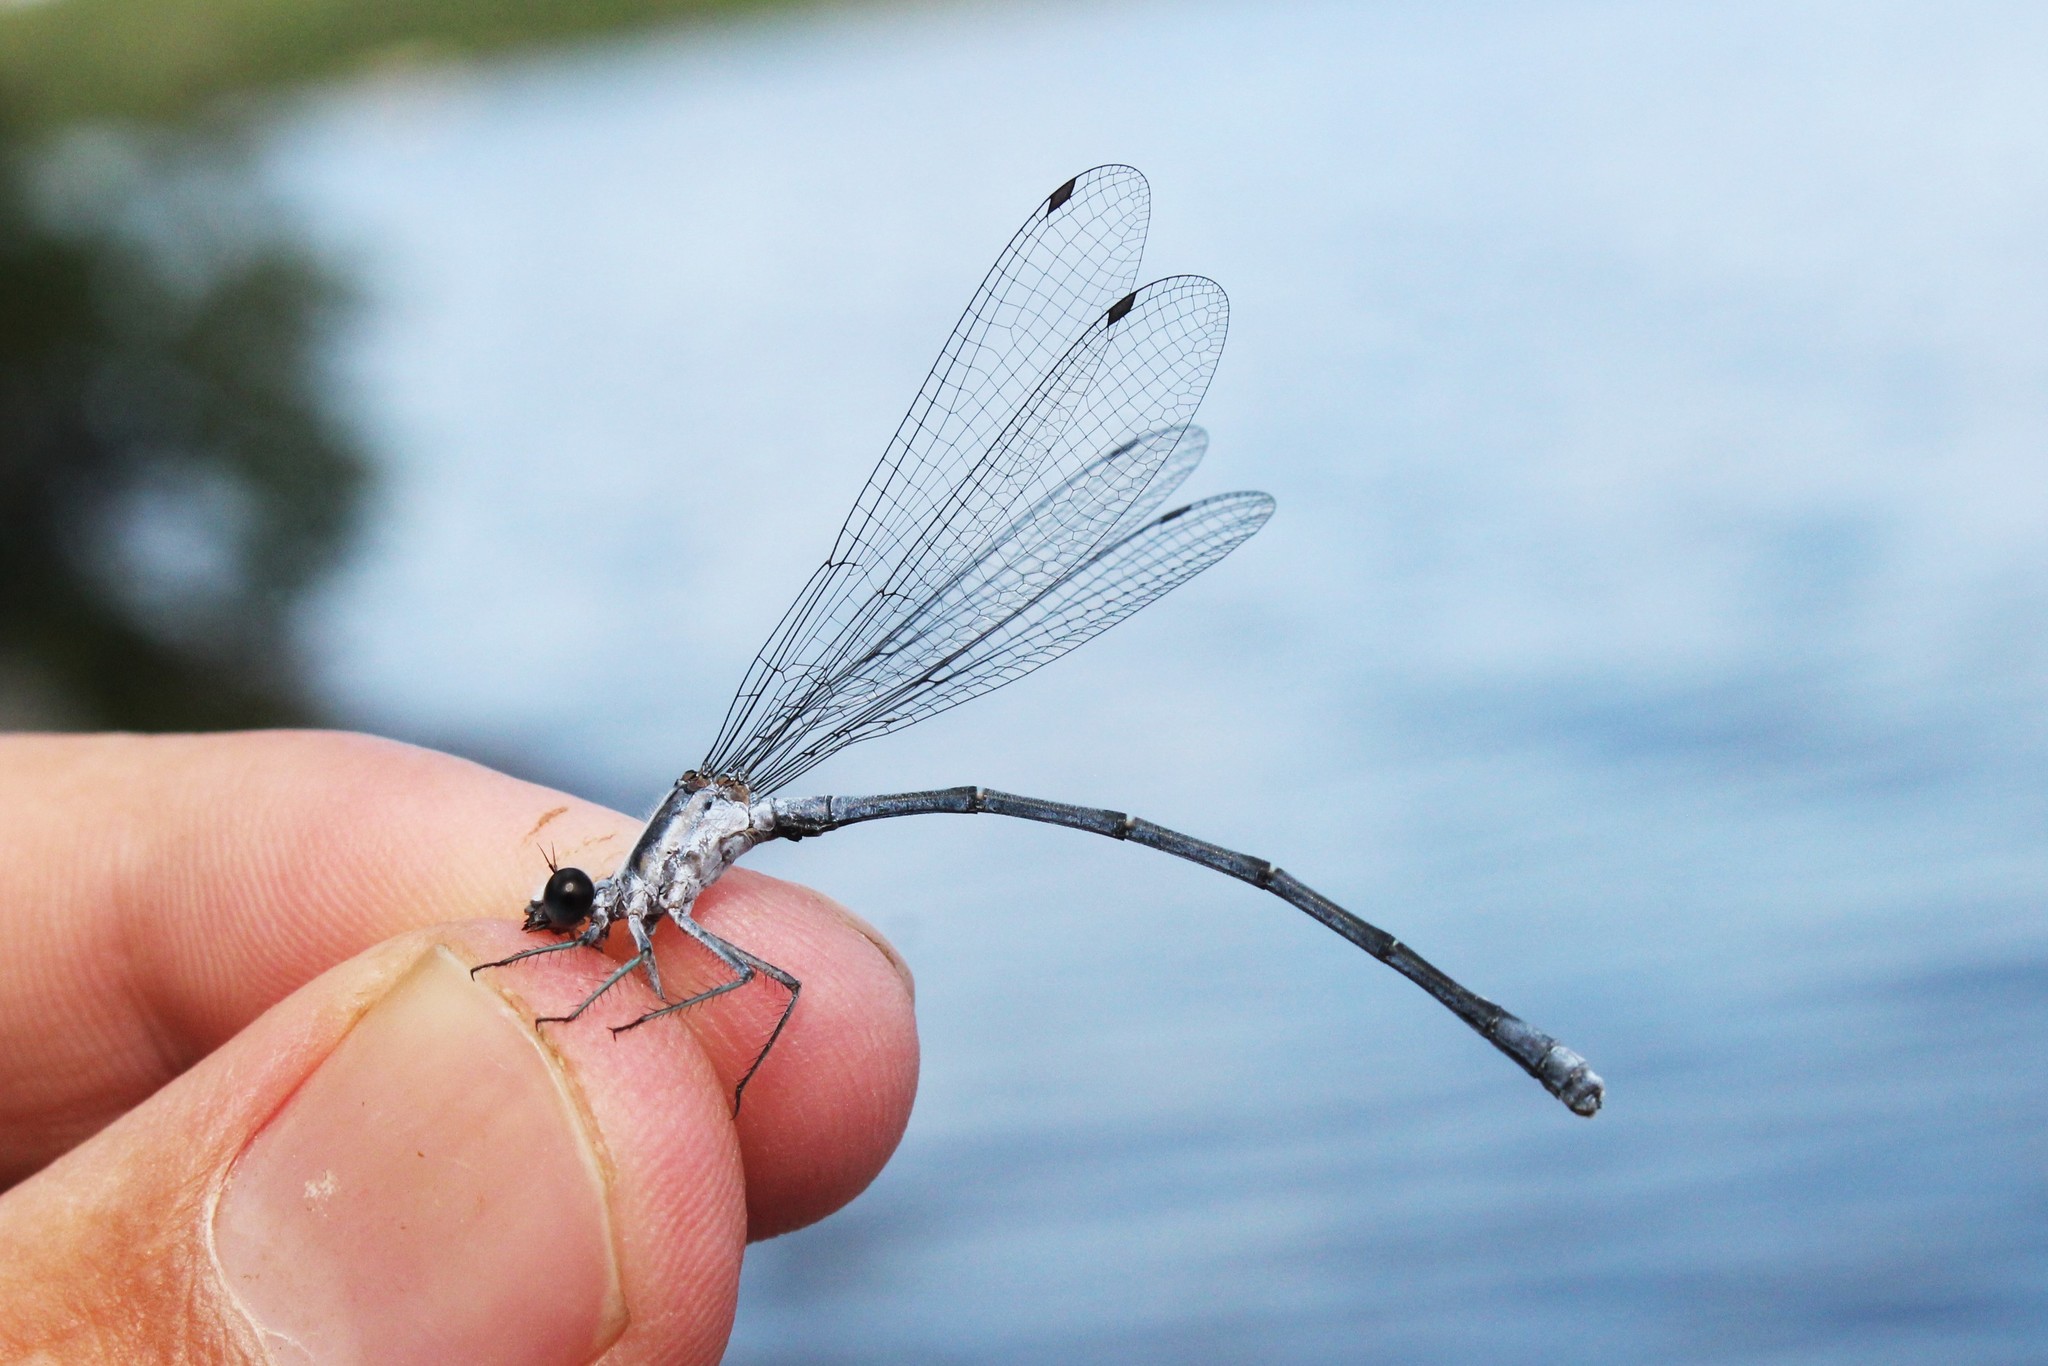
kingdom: Animalia
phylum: Arthropoda
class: Insecta
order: Odonata
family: Coenagrionidae
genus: Argia
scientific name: Argia moesta
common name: Powdered dancer
